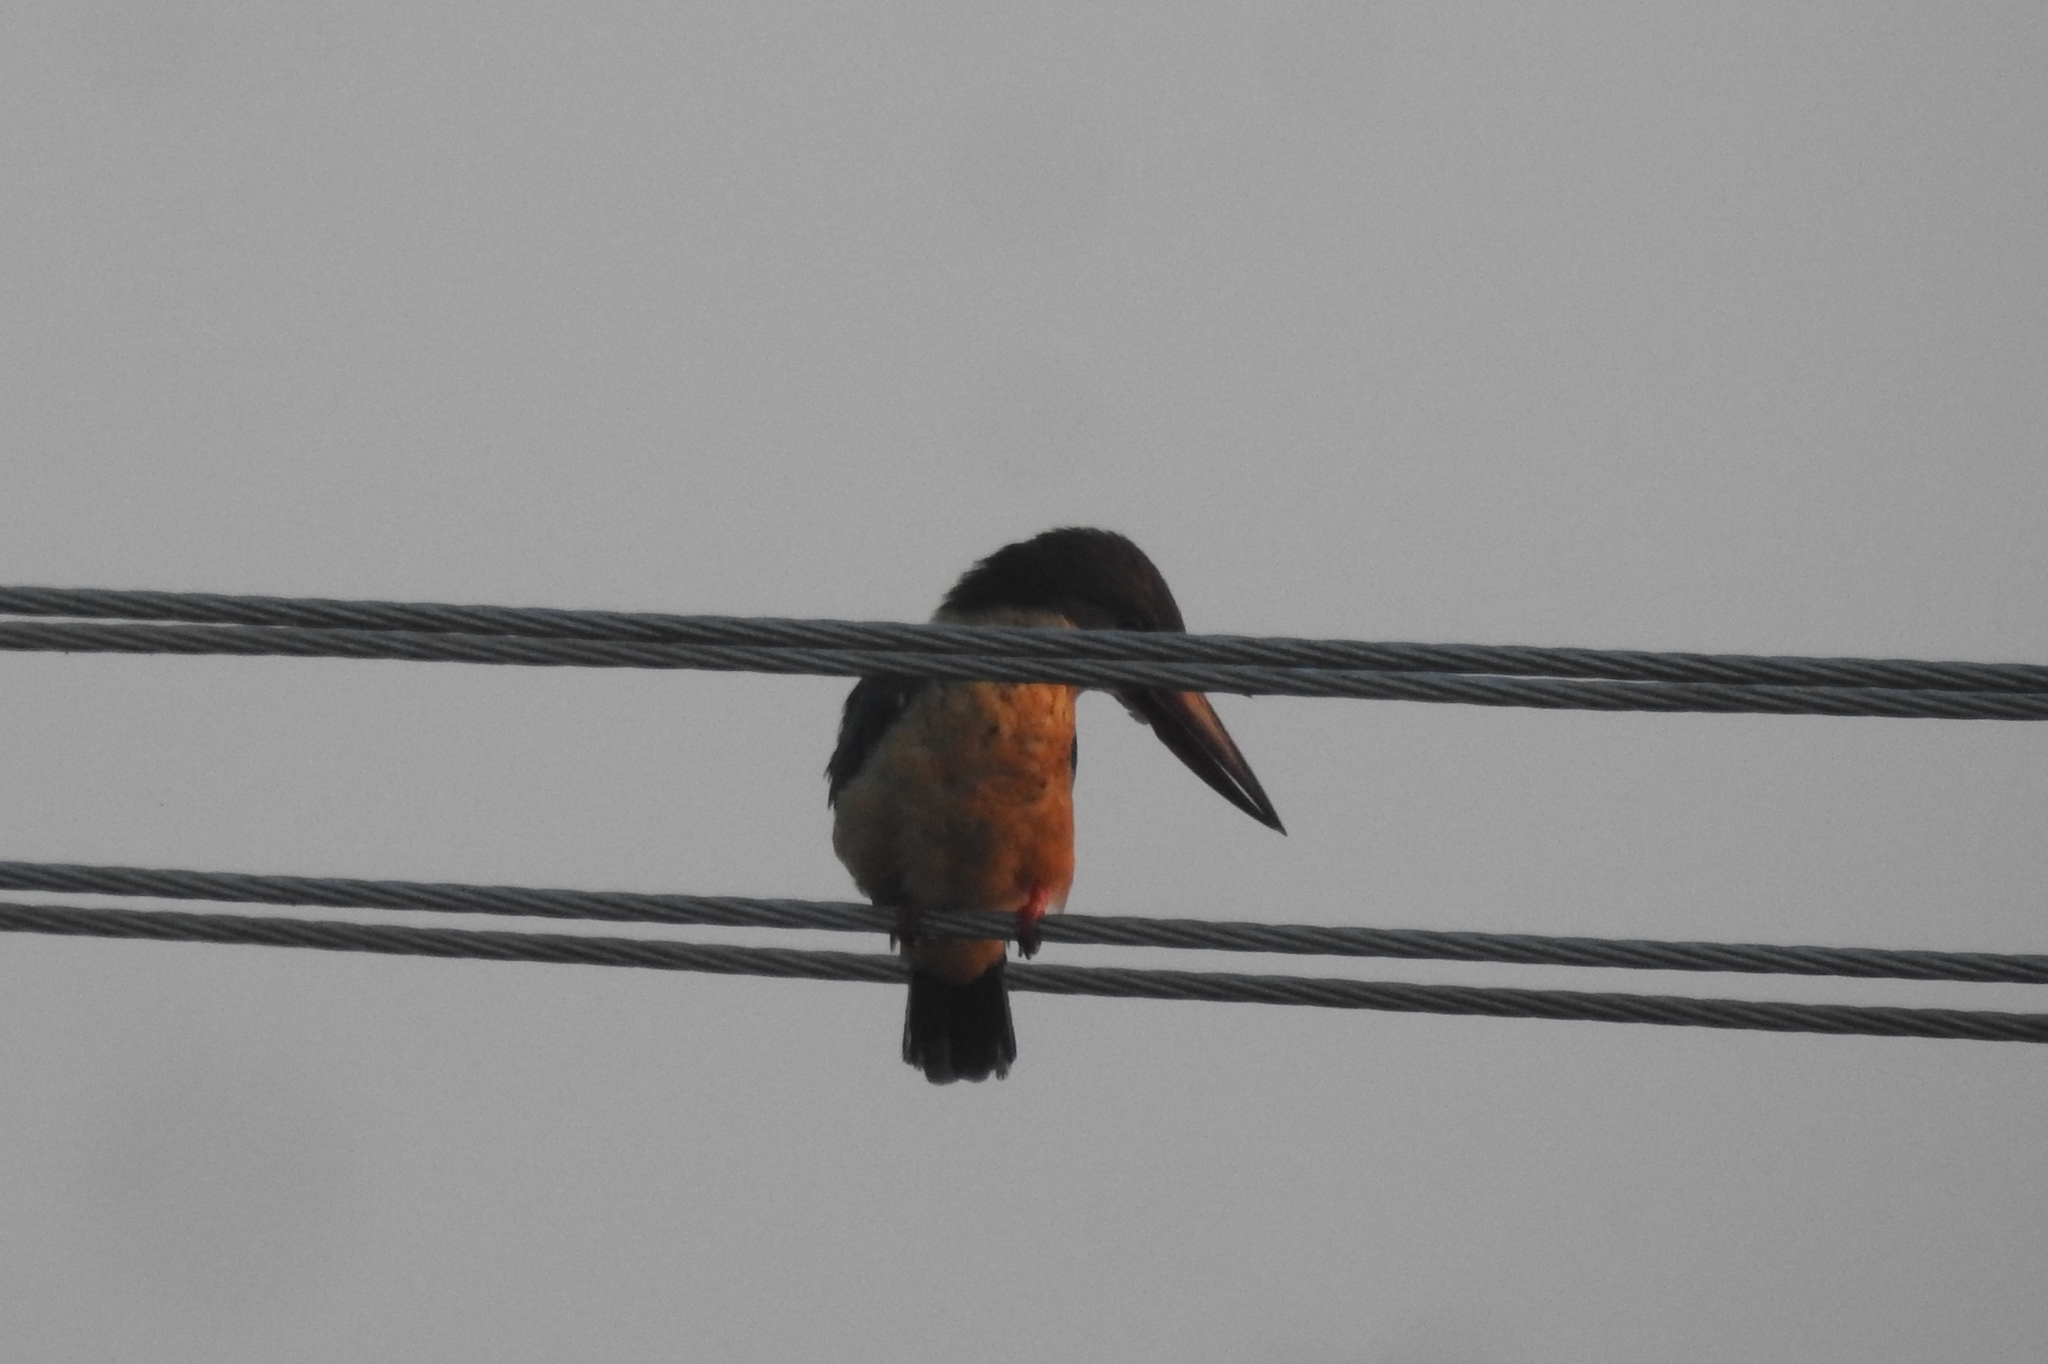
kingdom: Animalia
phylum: Chordata
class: Aves
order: Coraciiformes
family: Alcedinidae
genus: Pelargopsis
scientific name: Pelargopsis capensis
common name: Stork-billed kingfisher
